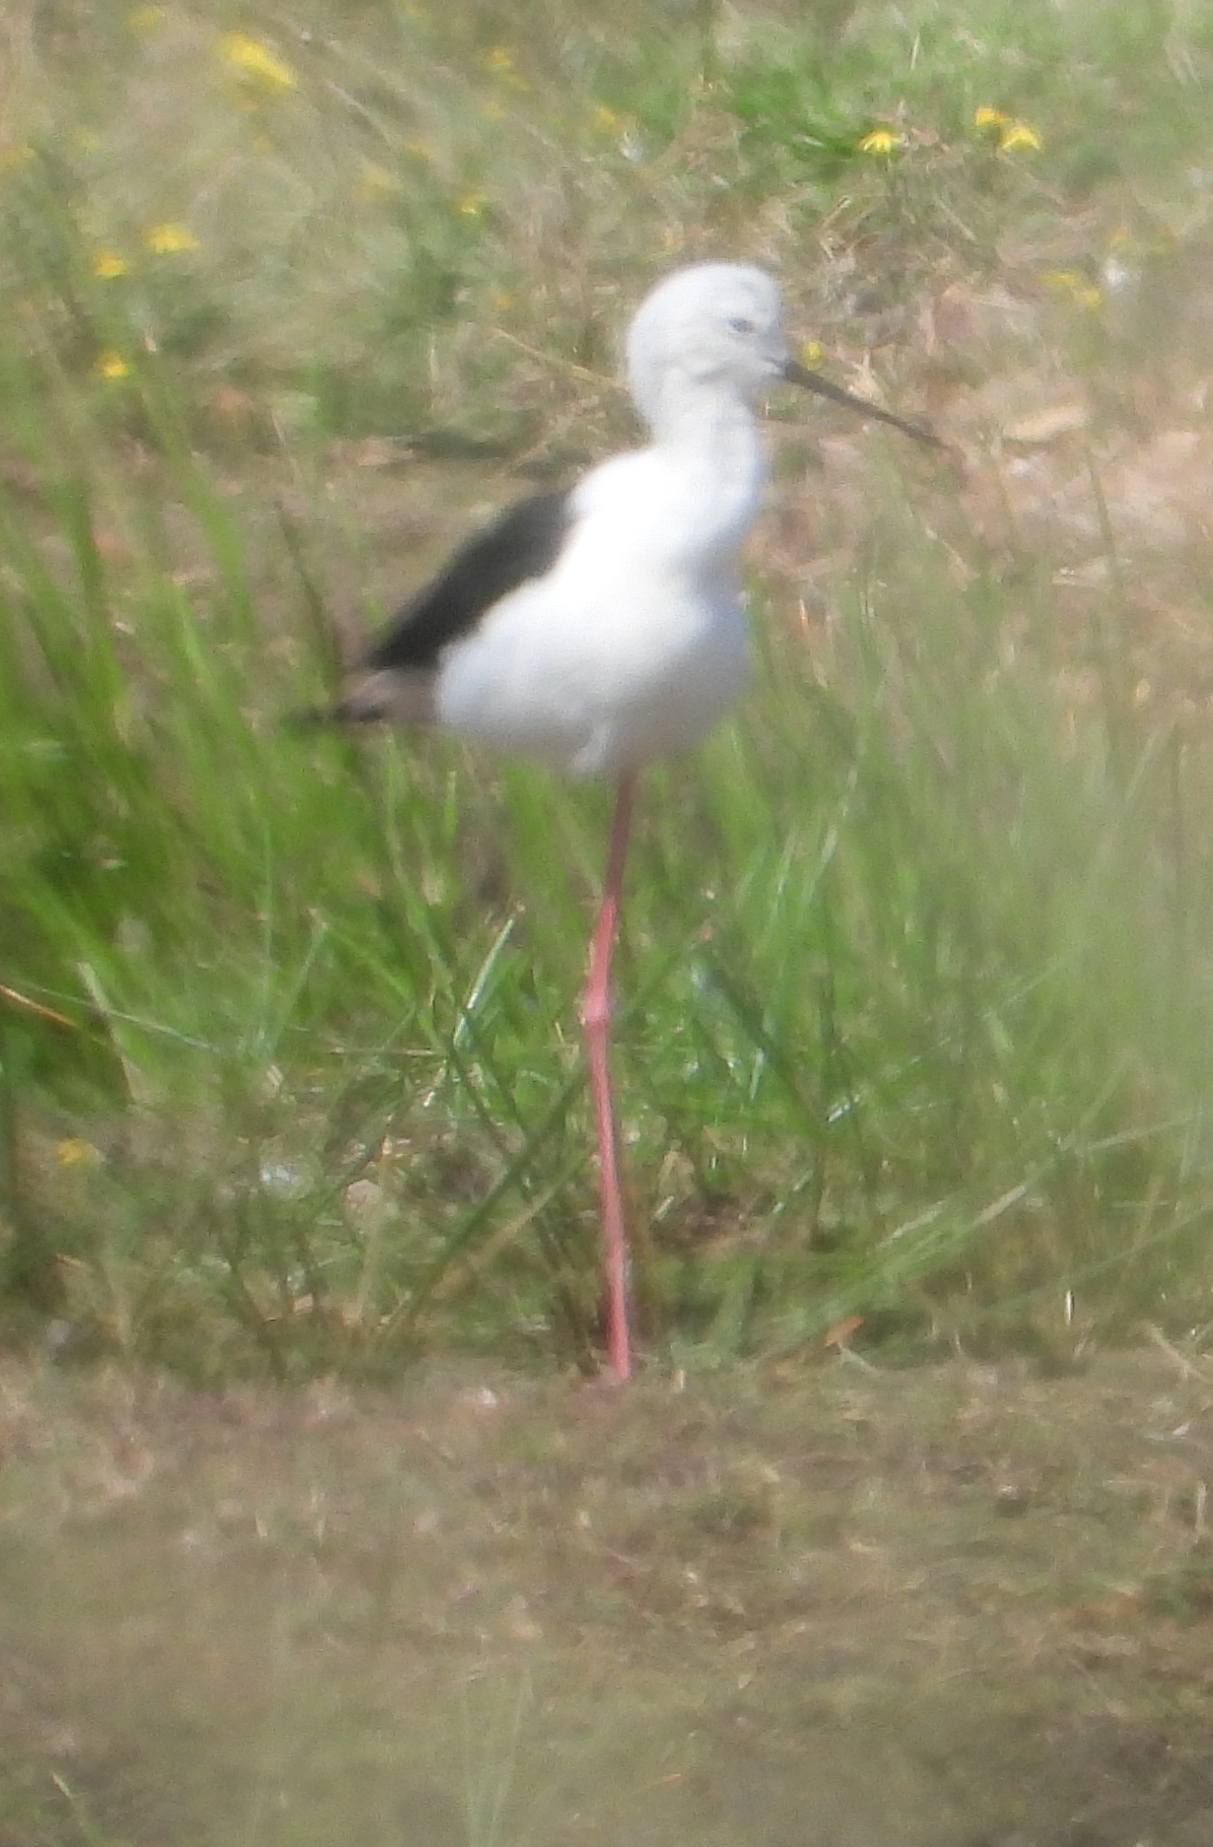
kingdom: Animalia
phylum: Chordata
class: Aves
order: Charadriiformes
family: Recurvirostridae
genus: Himantopus
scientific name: Himantopus himantopus
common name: Black-winged stilt
